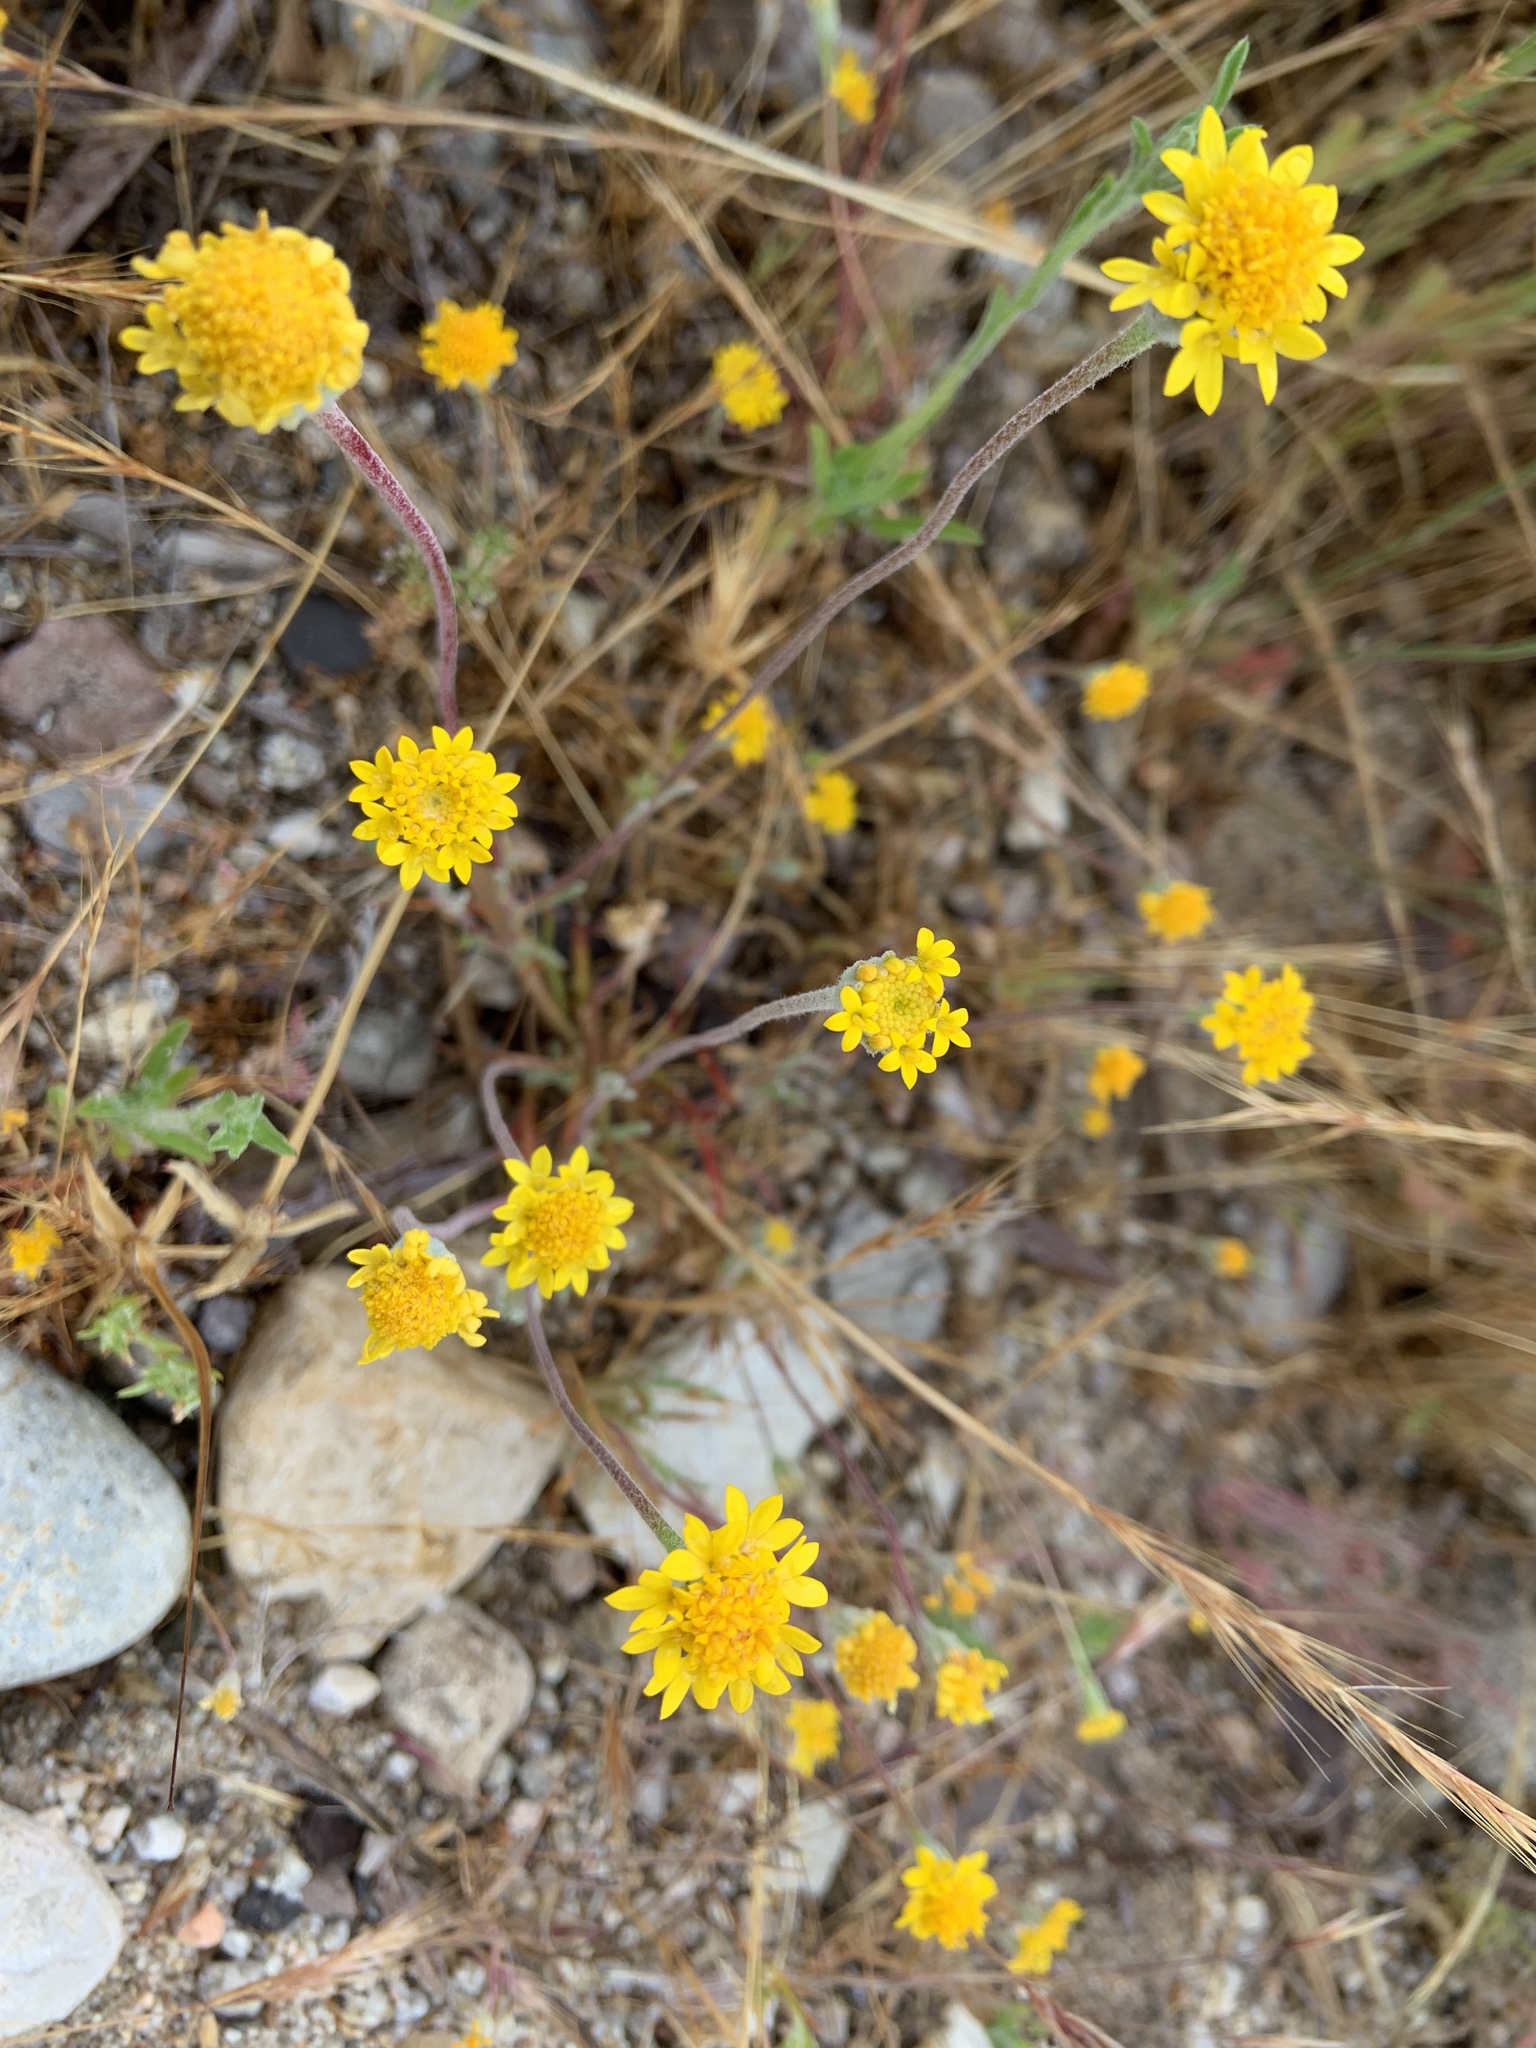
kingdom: Plantae
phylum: Tracheophyta
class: Magnoliopsida
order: Asterales
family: Asteraceae
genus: Chaenactis
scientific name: Chaenactis glabriuscula
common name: Yellow pincushion
